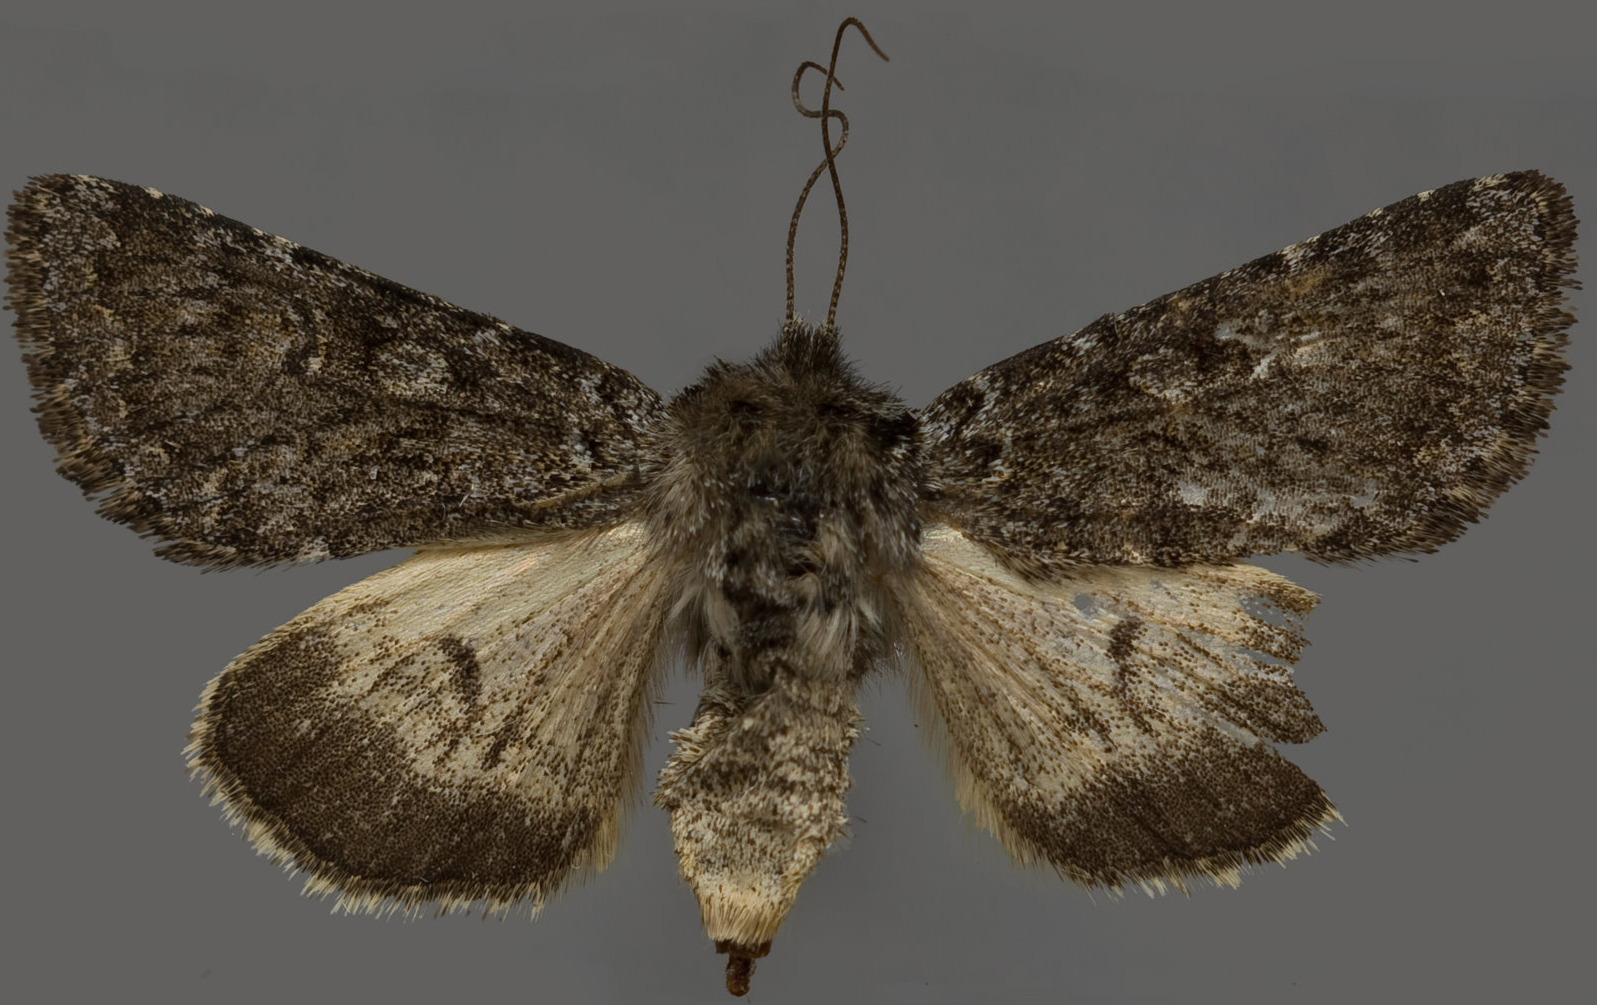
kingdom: Animalia
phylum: Arthropoda
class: Insecta
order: Lepidoptera
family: Noctuidae
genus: Lasionycta
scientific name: Lasionycta leucocycla
